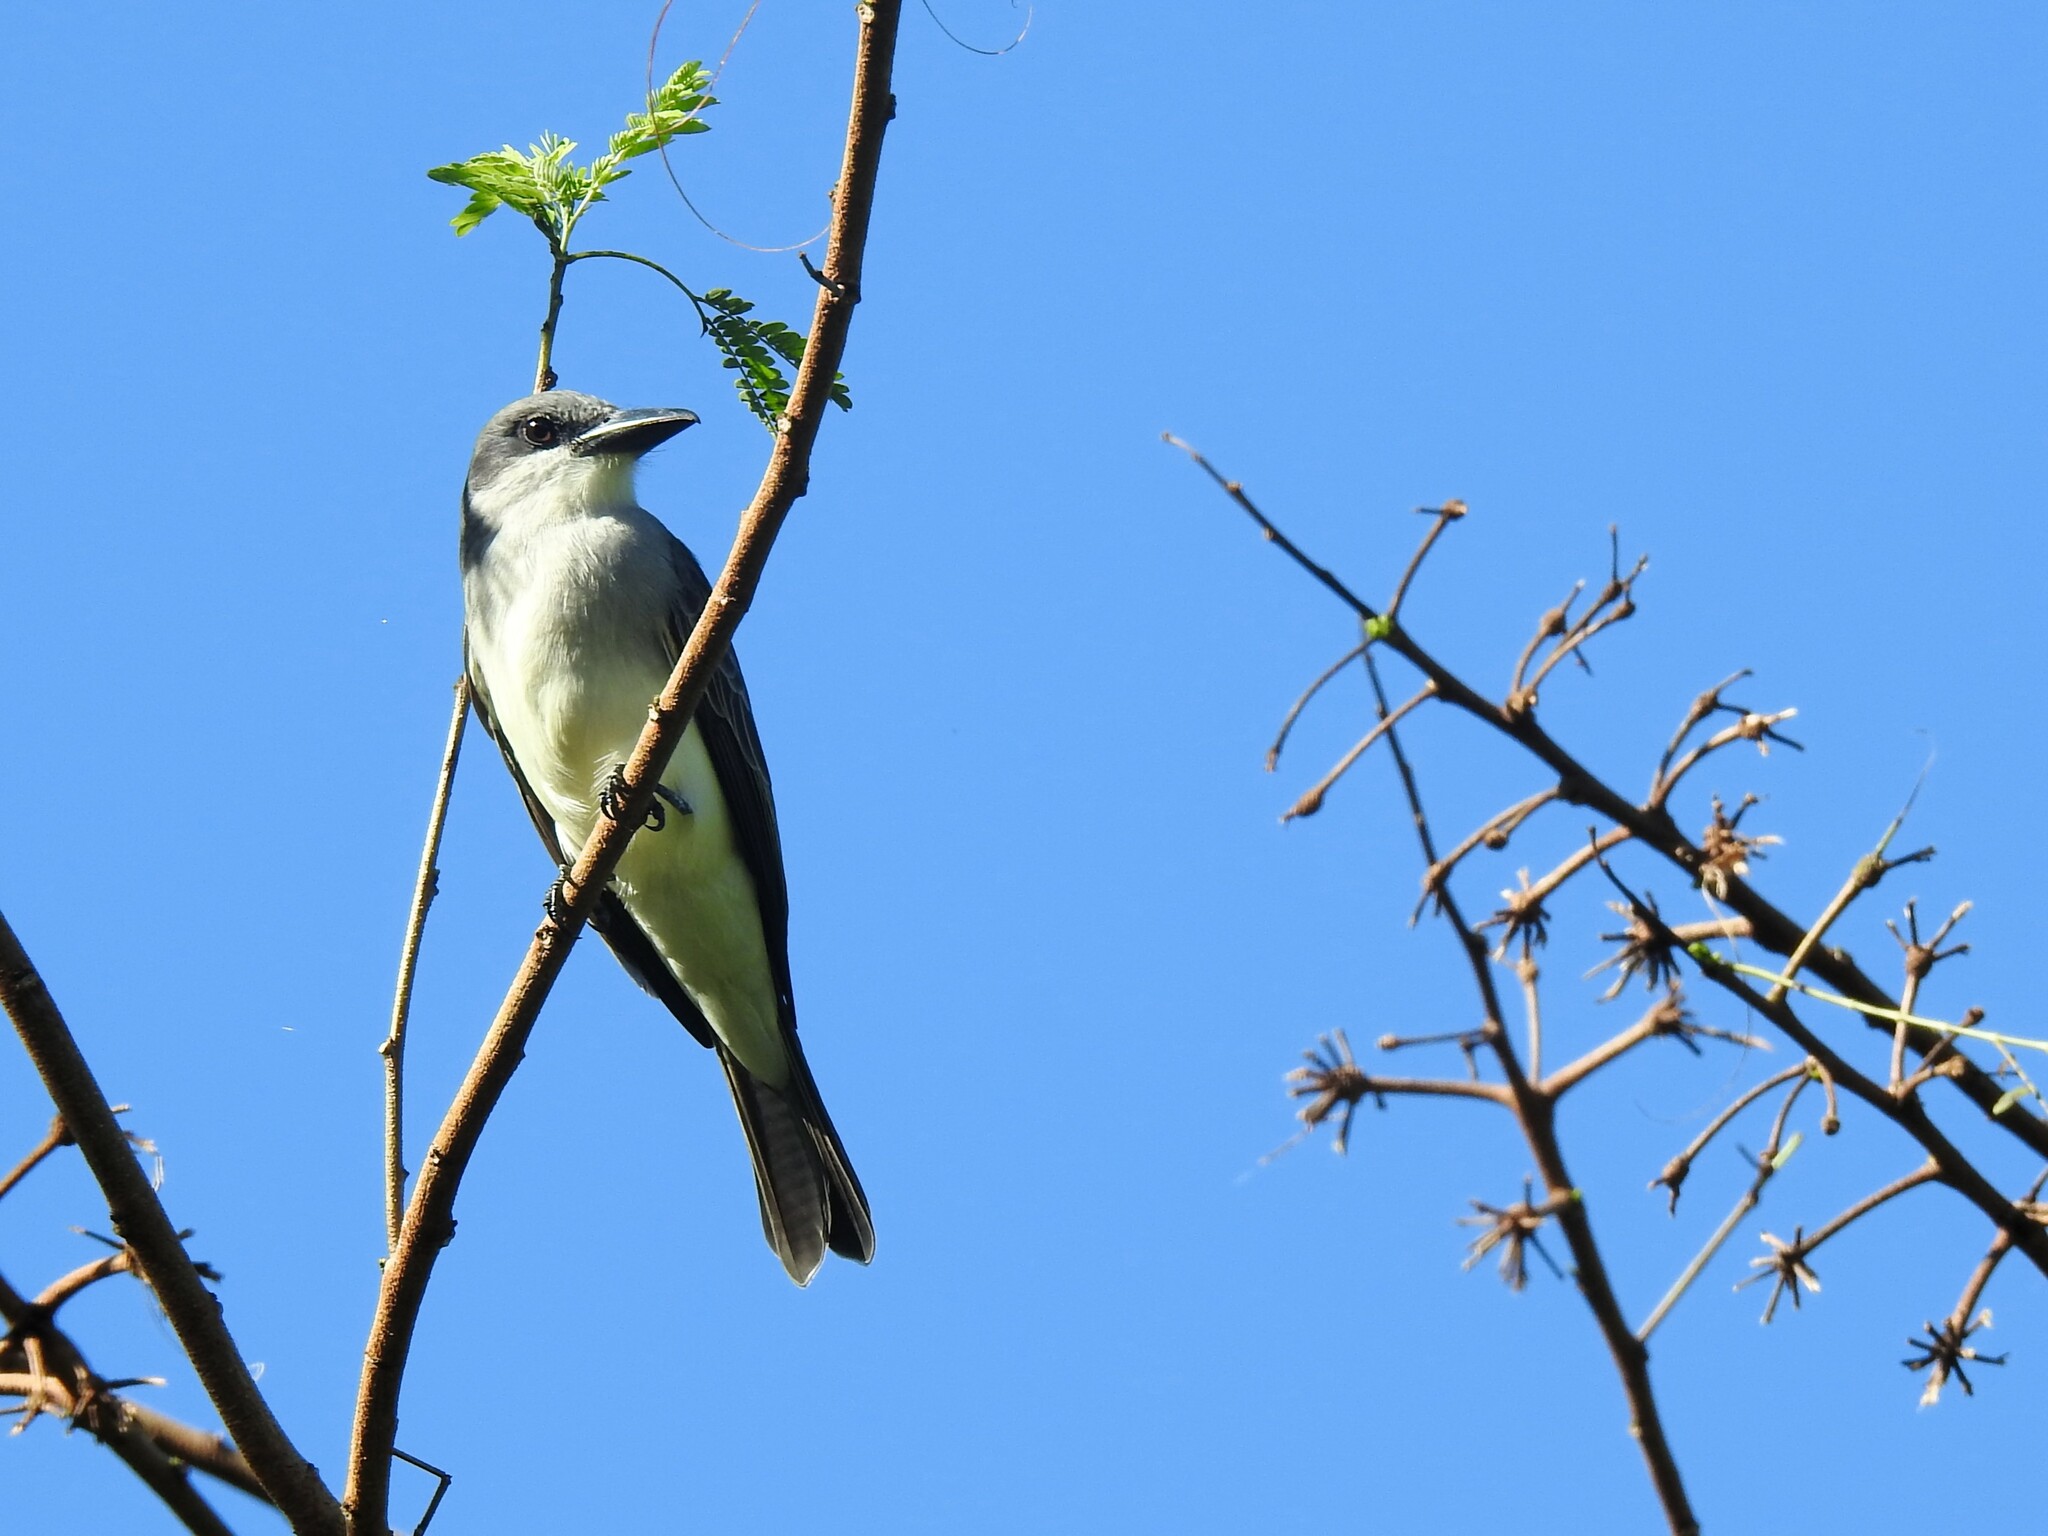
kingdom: Animalia
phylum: Chordata
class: Aves
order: Passeriformes
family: Tyrannidae
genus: Tyrannus
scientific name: Tyrannus dominicensis
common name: Gray kingbird
